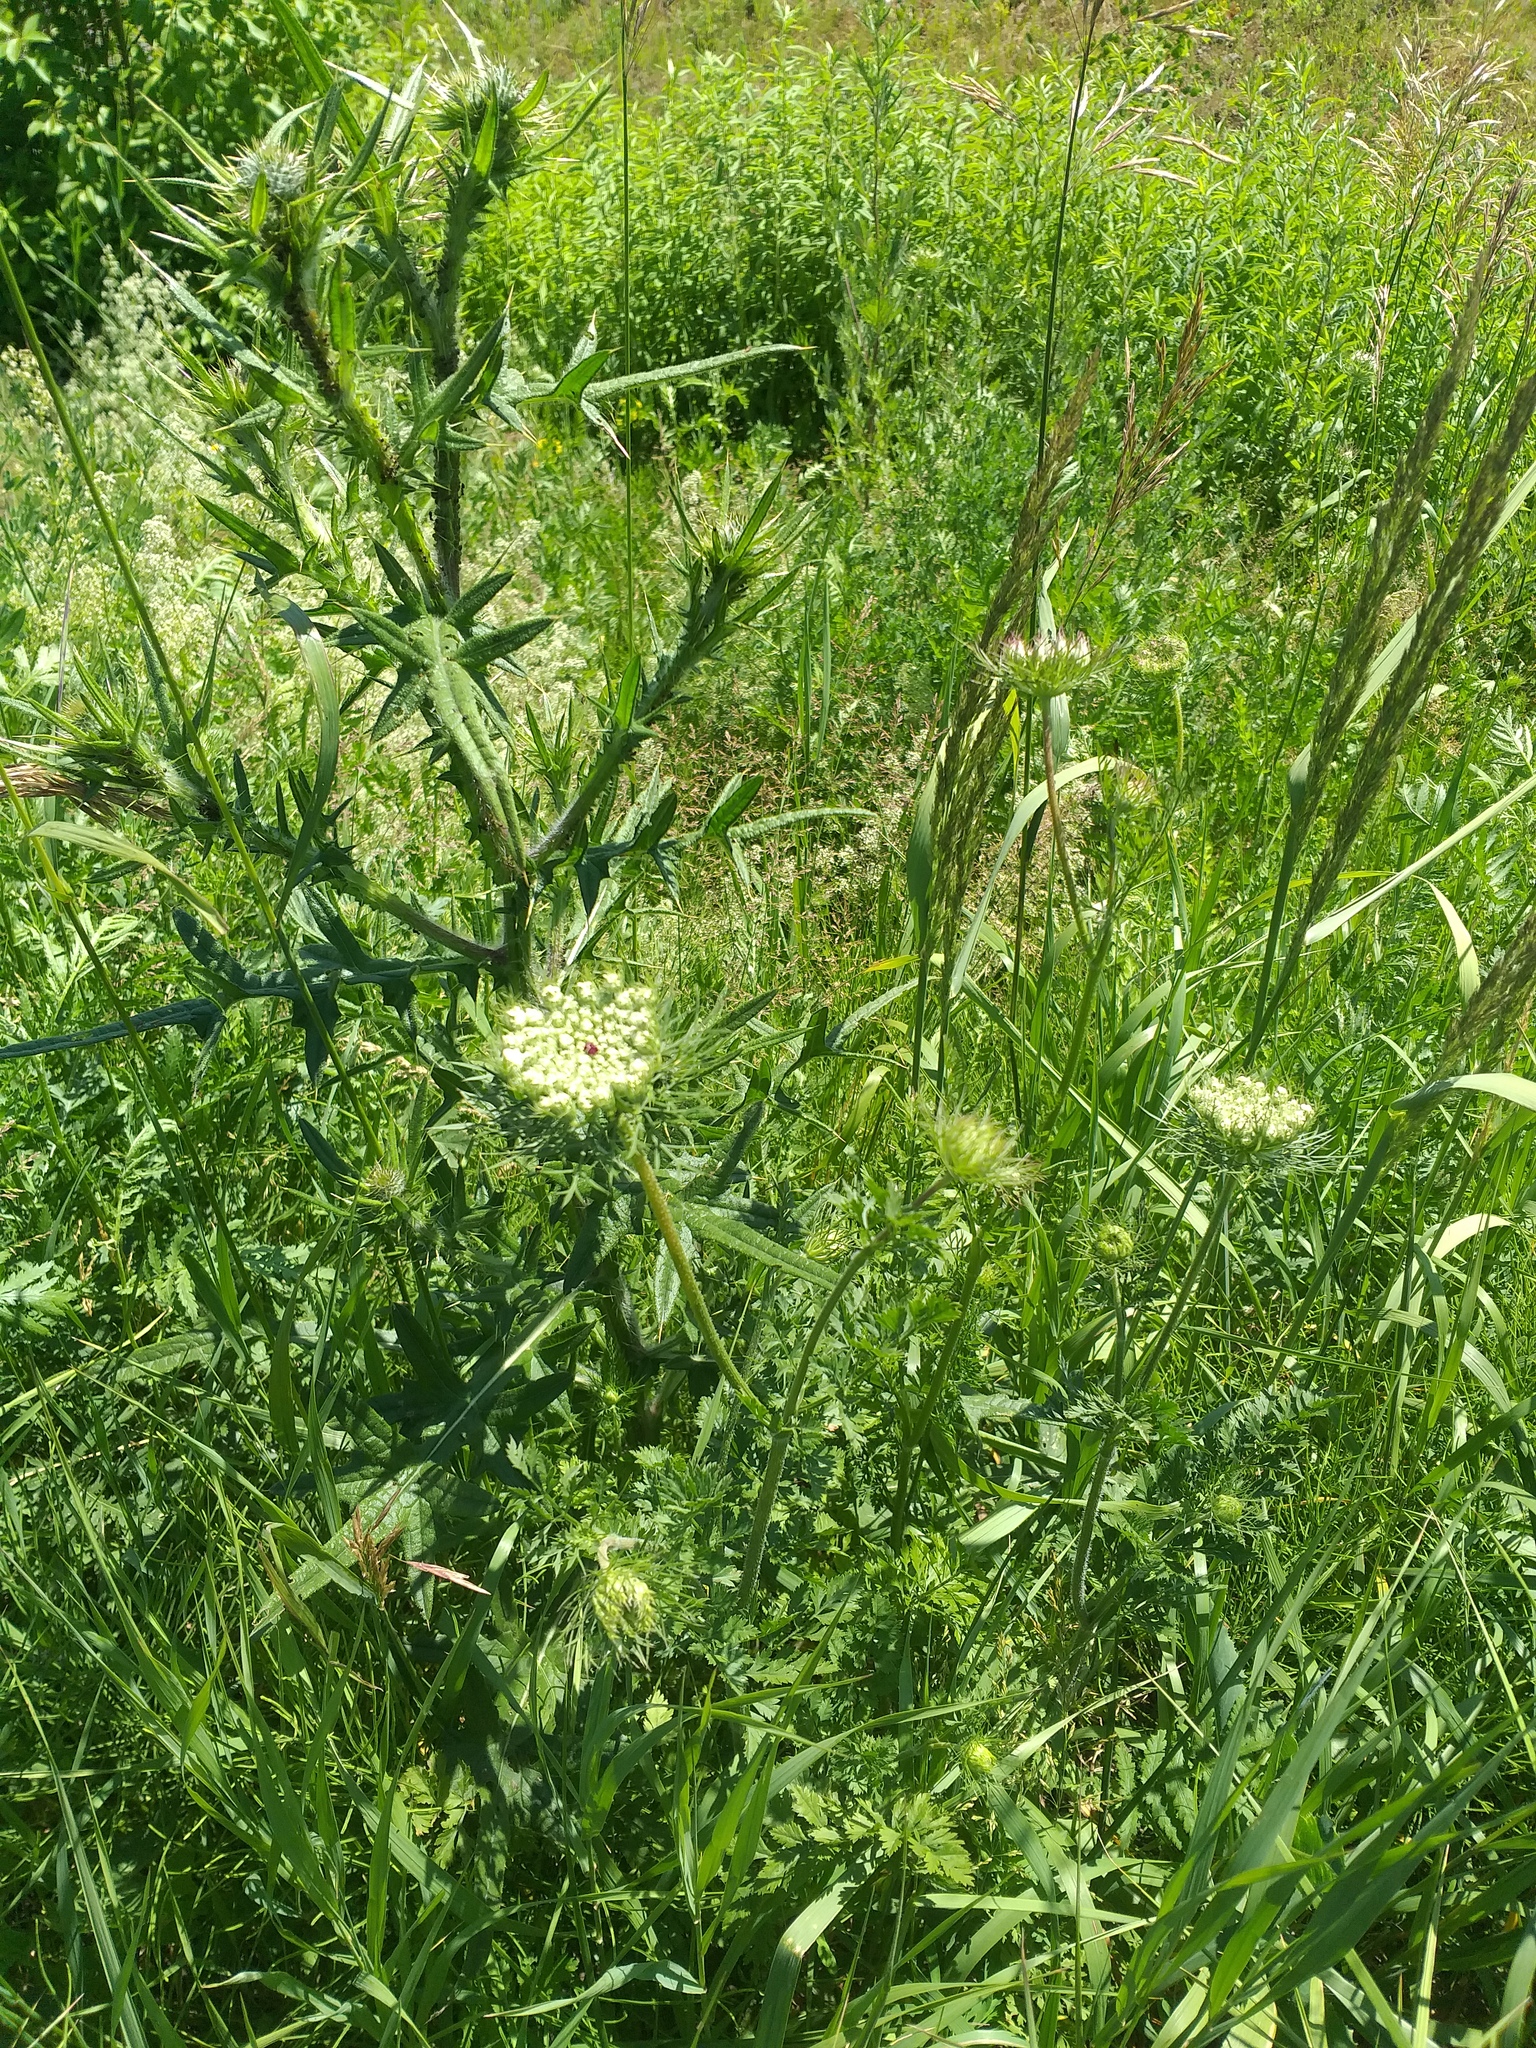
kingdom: Plantae
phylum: Tracheophyta
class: Magnoliopsida
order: Apiales
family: Apiaceae
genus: Daucus
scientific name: Daucus carota
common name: Wild carrot
